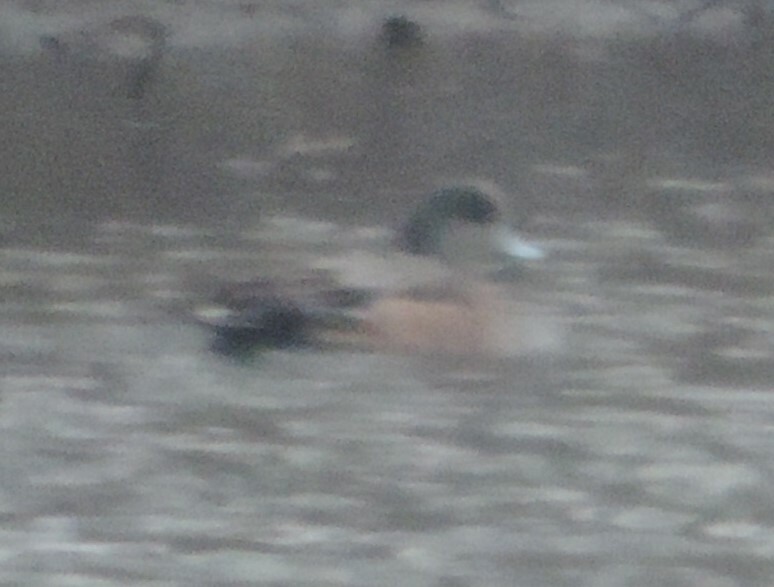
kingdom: Animalia
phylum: Chordata
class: Aves
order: Anseriformes
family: Anatidae
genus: Mareca
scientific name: Mareca americana
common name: American wigeon
